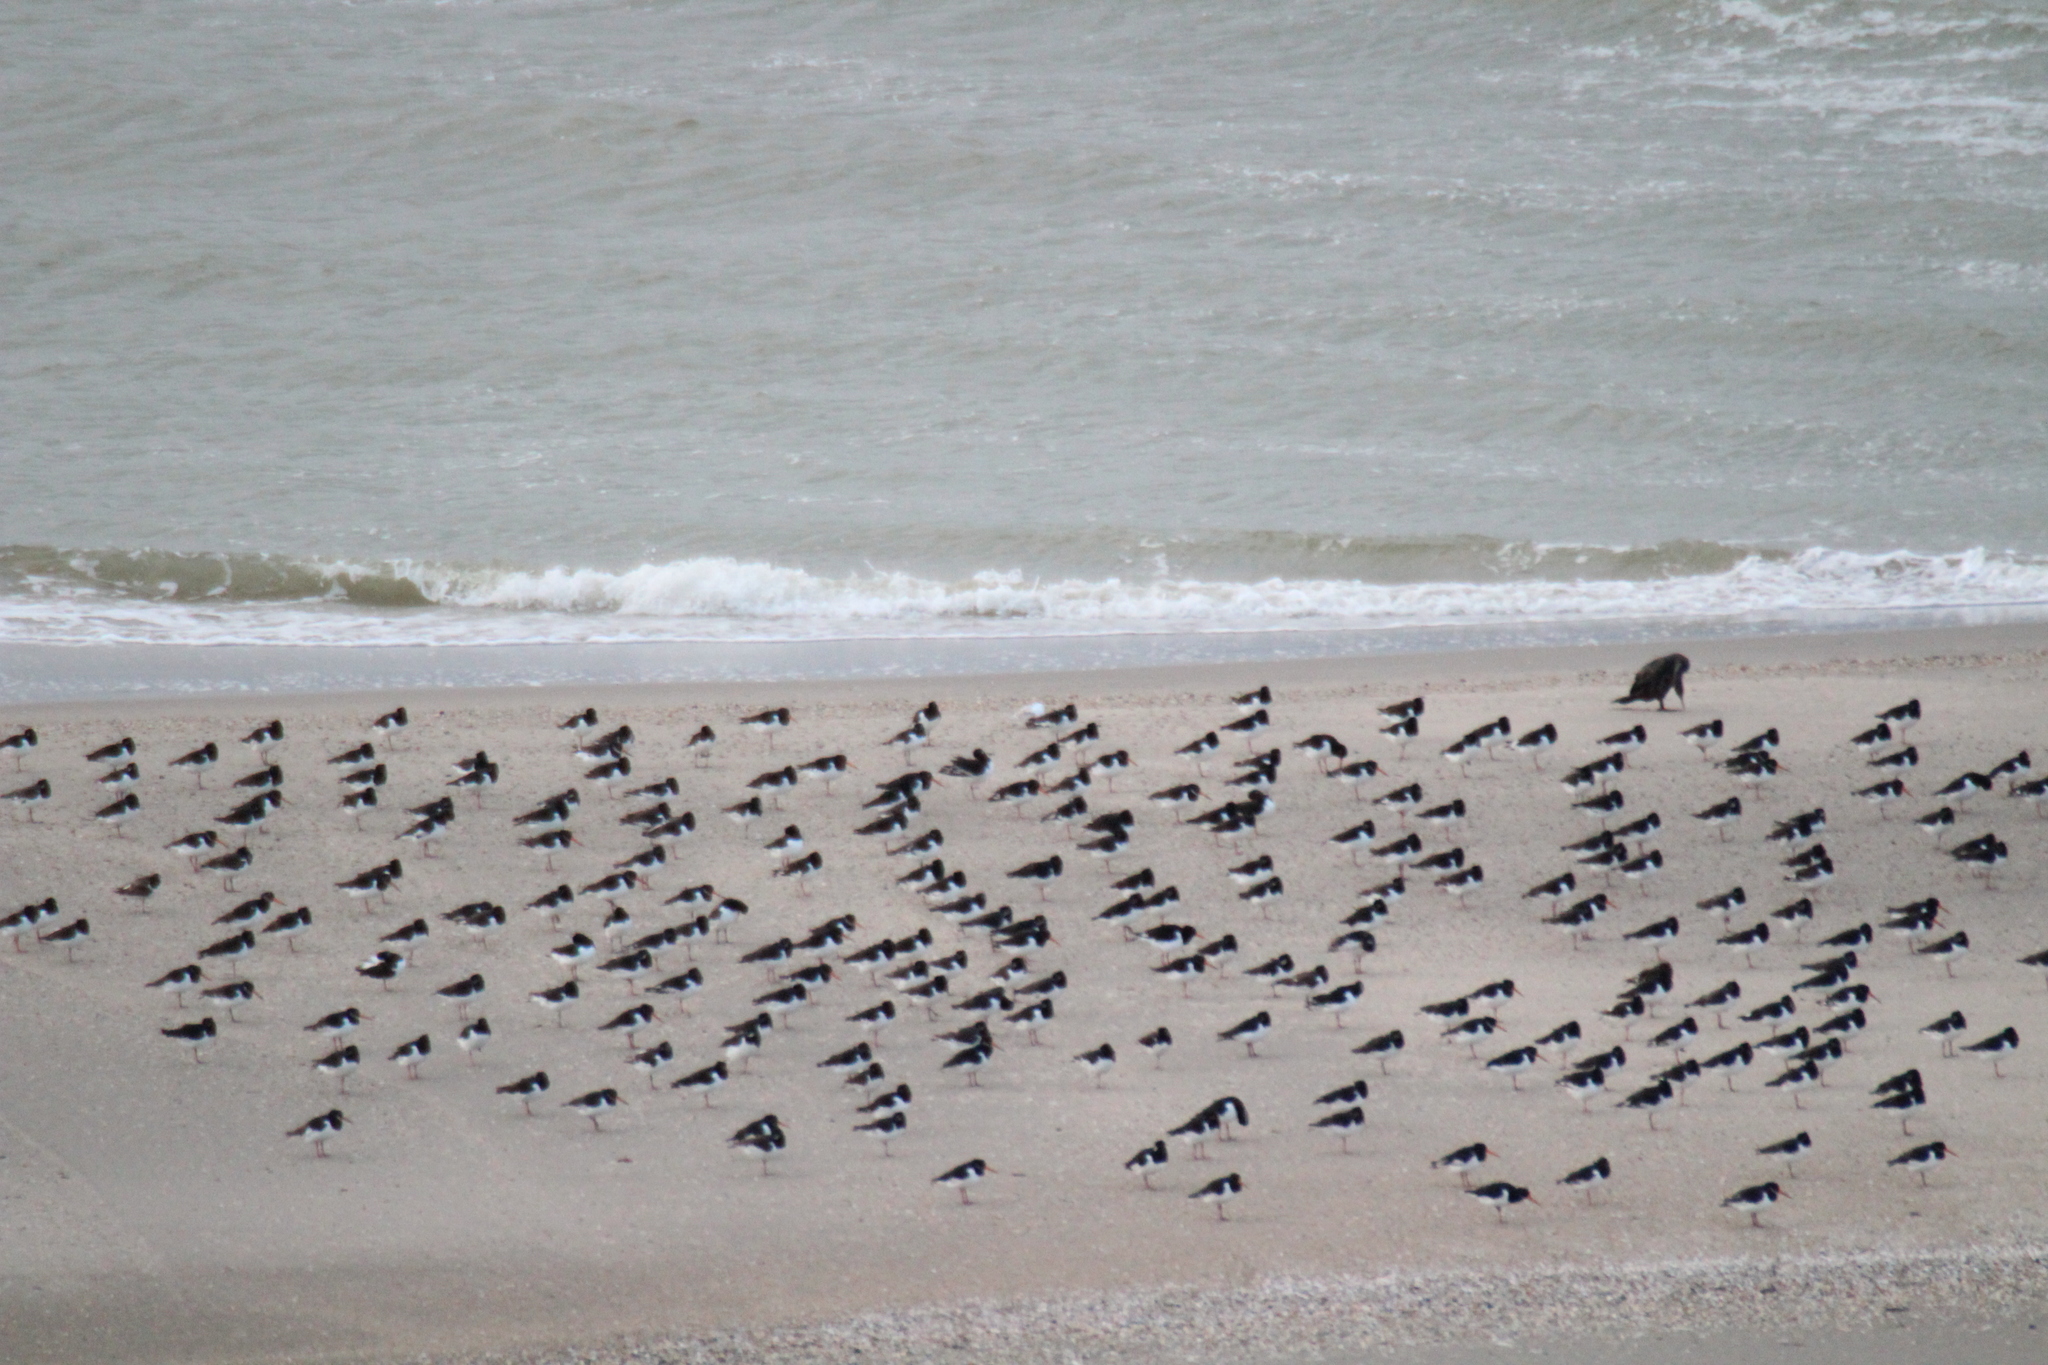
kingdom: Animalia
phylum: Chordata
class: Aves
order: Charadriiformes
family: Haematopodidae
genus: Haematopus
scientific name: Haematopus ostralegus
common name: Eurasian oystercatcher
